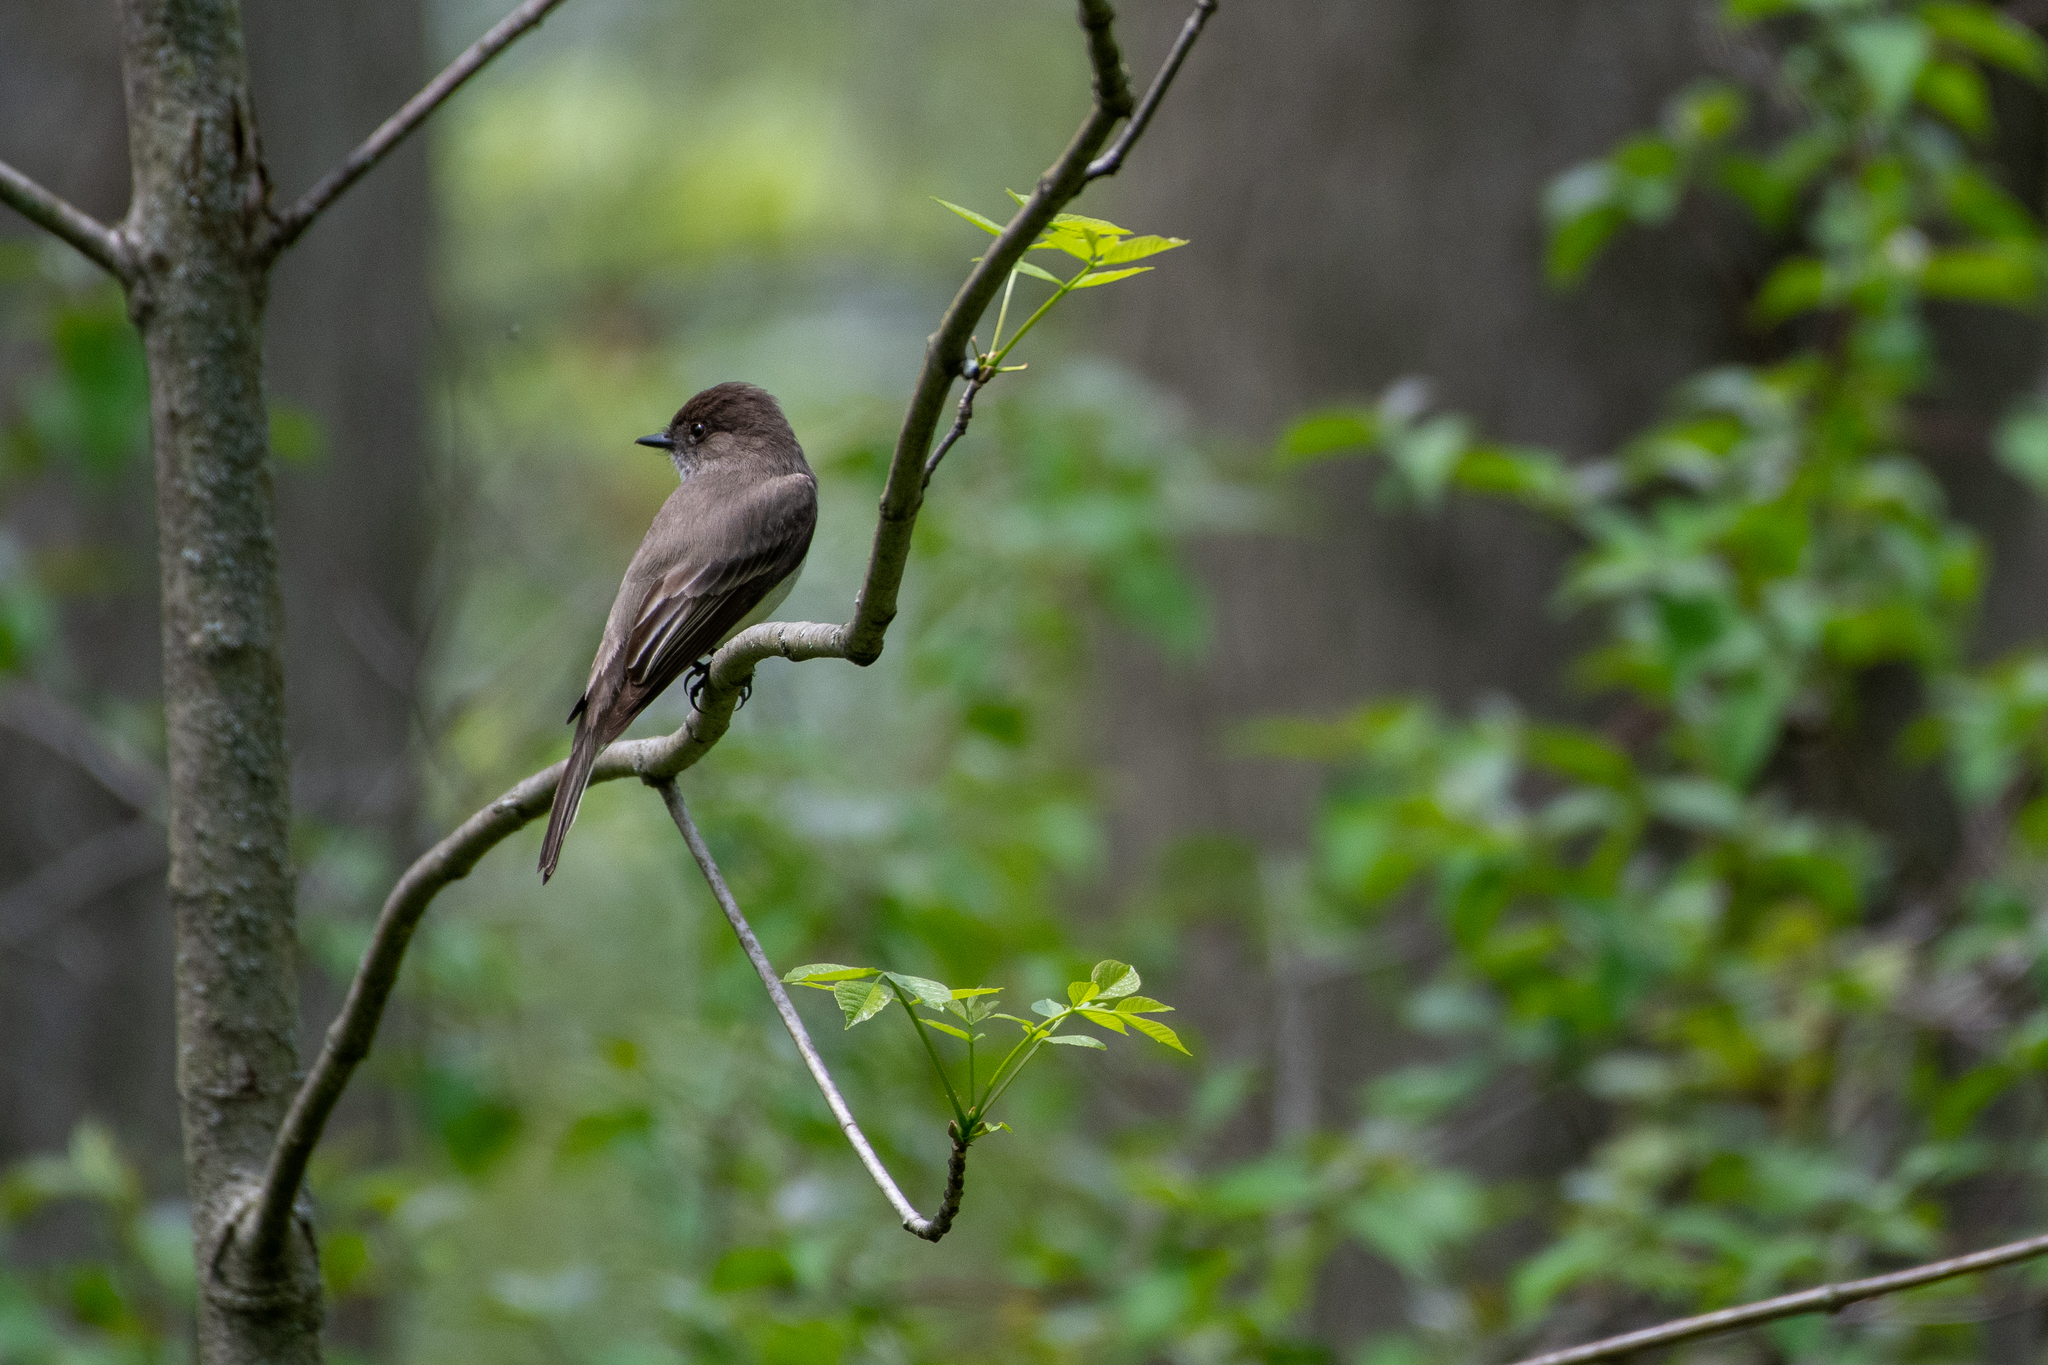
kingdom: Animalia
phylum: Chordata
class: Aves
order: Passeriformes
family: Tyrannidae
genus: Sayornis
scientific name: Sayornis phoebe
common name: Eastern phoebe
